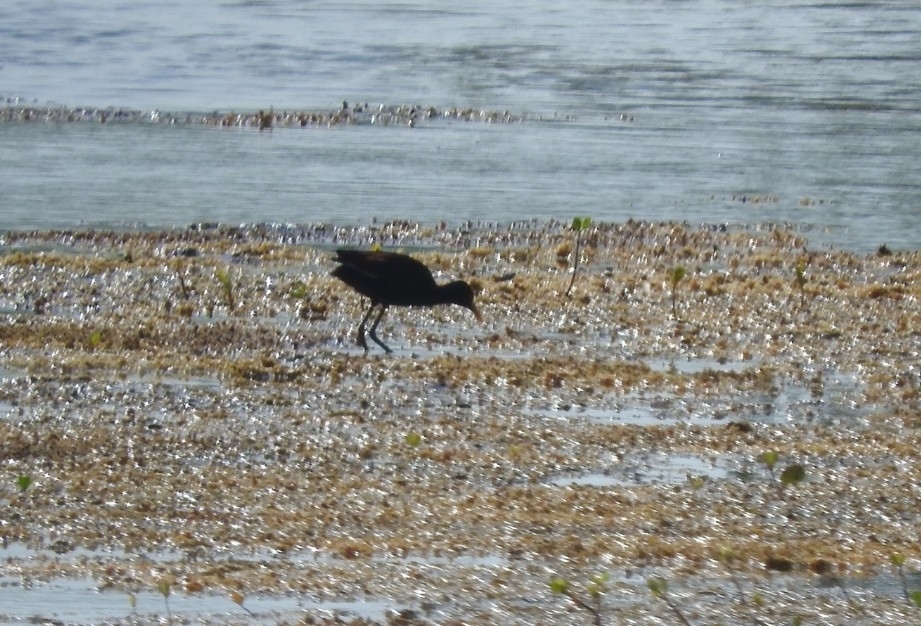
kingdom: Animalia
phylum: Chordata
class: Aves
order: Charadriiformes
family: Jacanidae
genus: Jacana
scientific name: Jacana spinosa
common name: Northern jacana
